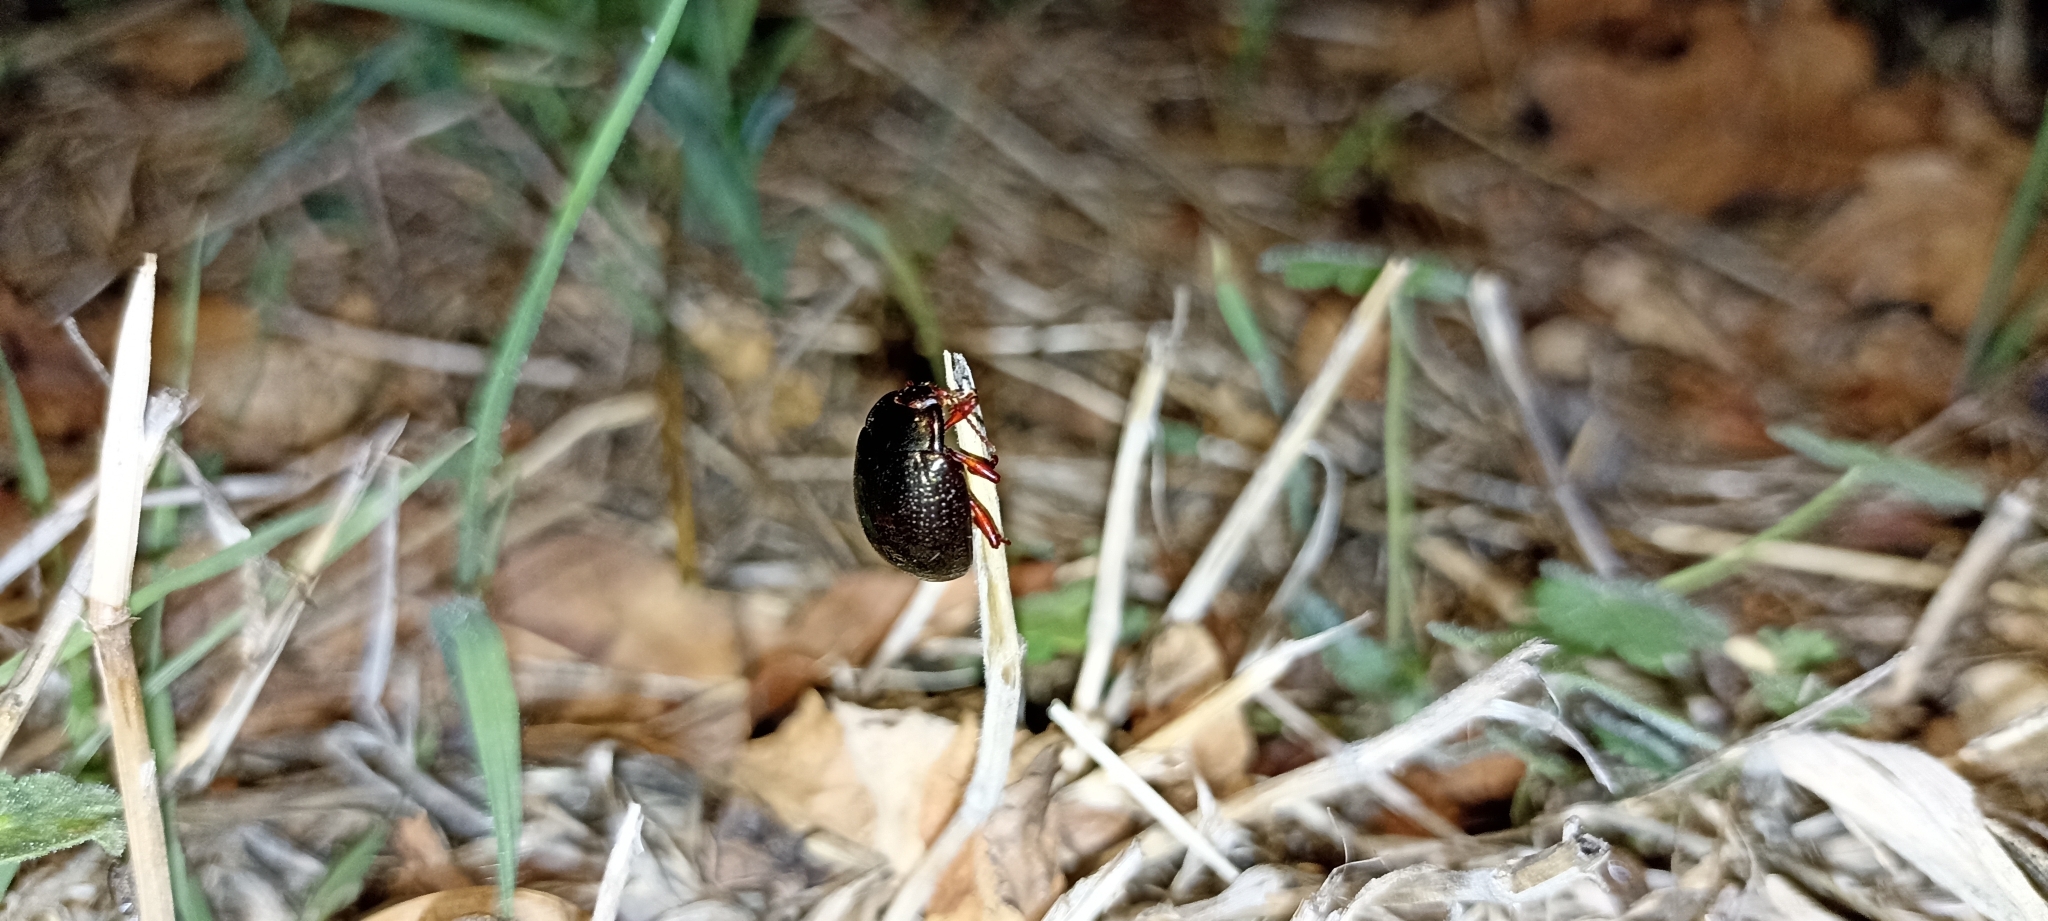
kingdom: Animalia
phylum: Arthropoda
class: Insecta
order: Coleoptera
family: Chrysomelidae
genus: Chrysolina
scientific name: Chrysolina bankii
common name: Leaf beetle
